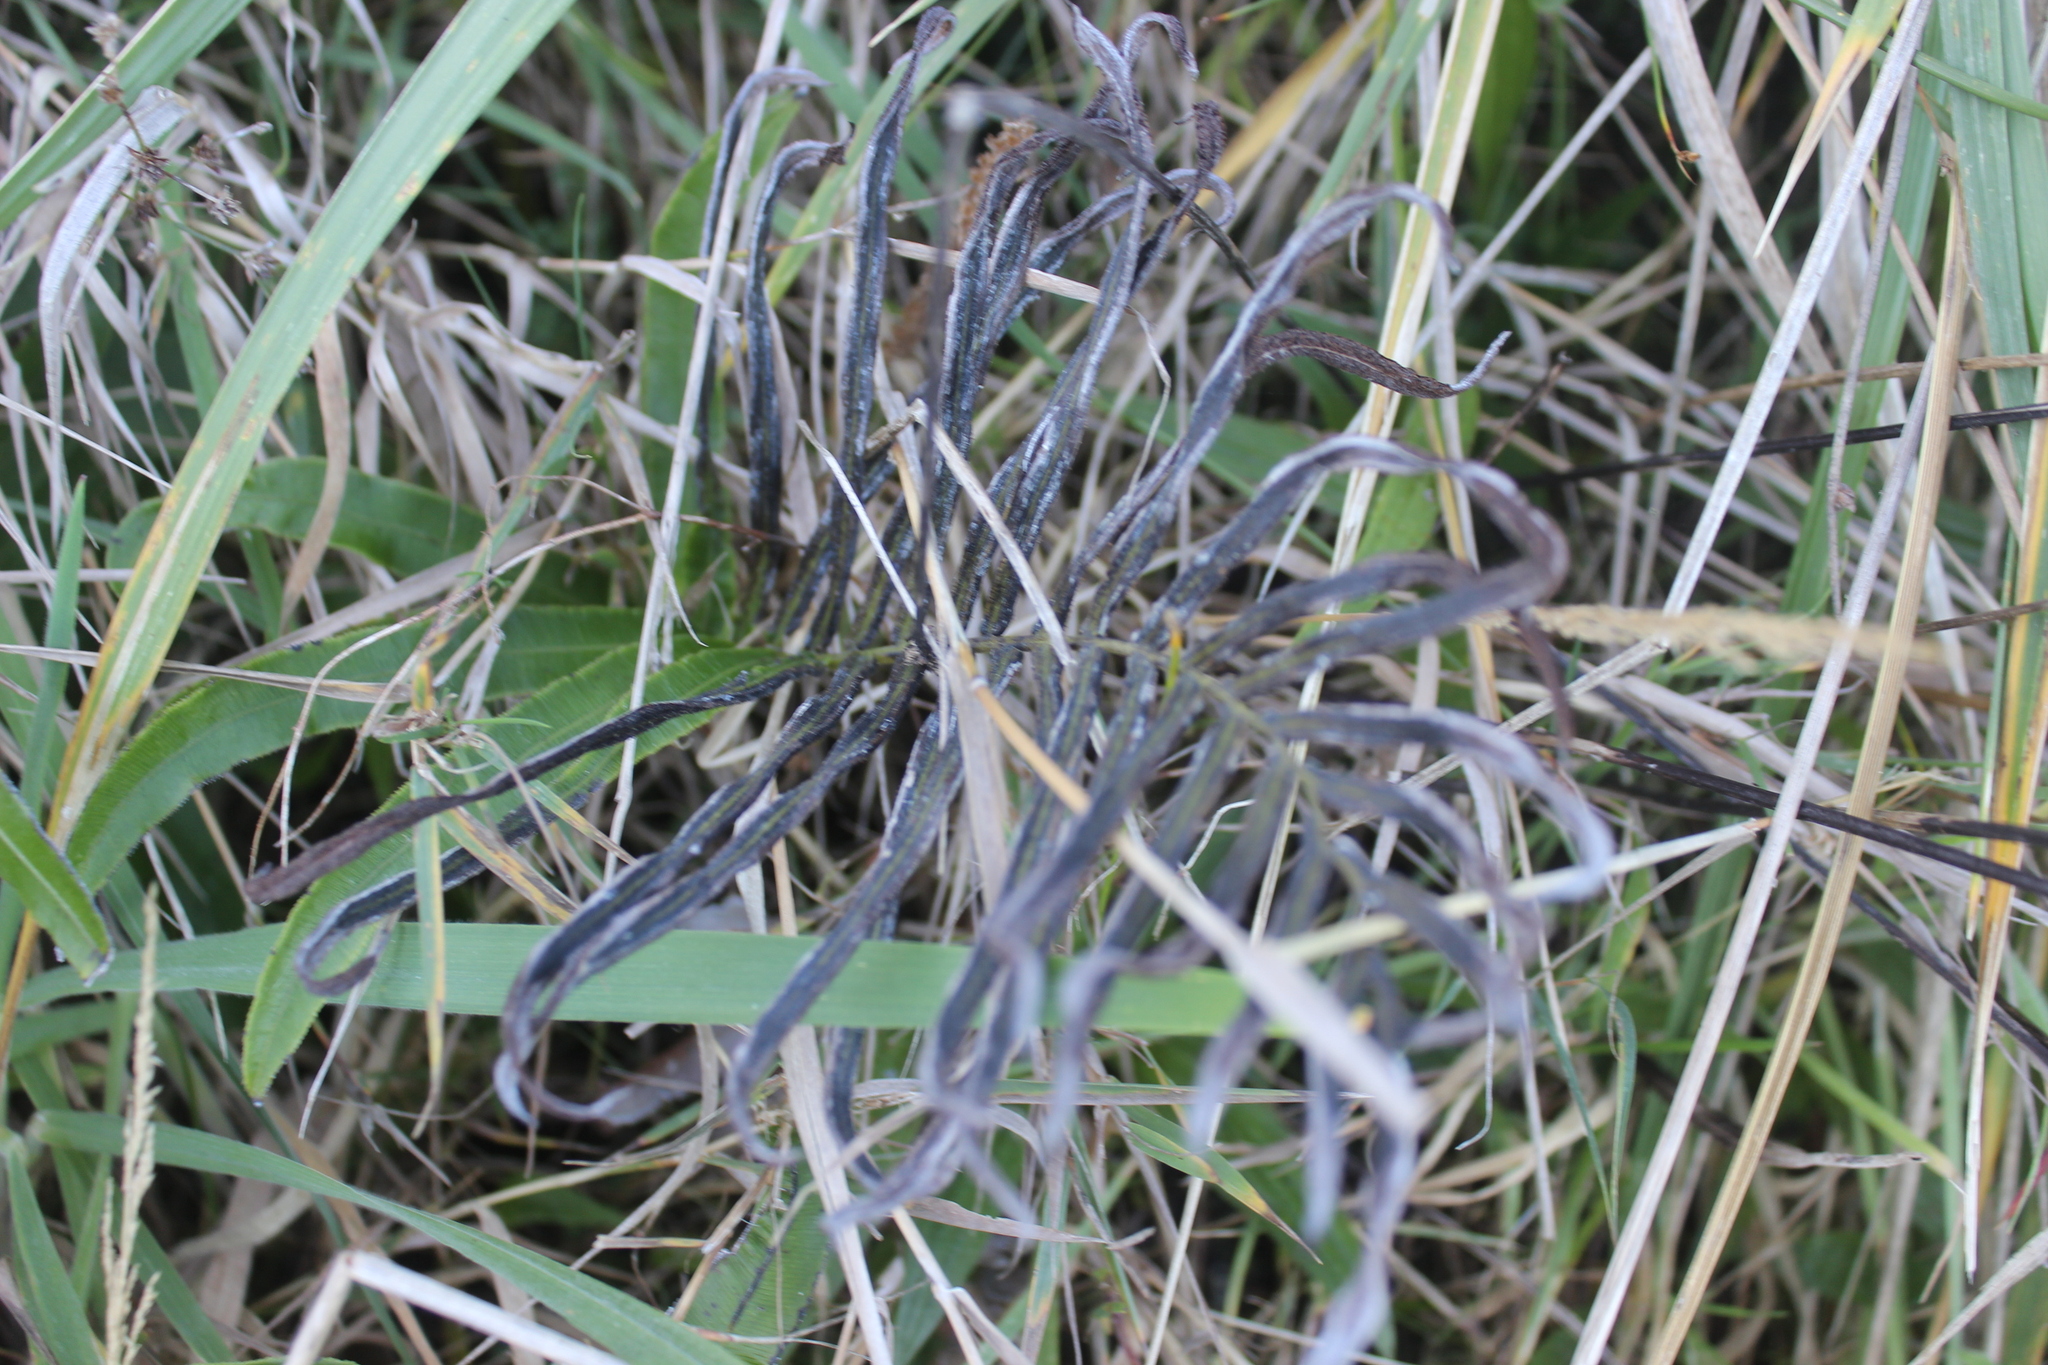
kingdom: Plantae
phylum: Tracheophyta
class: Polypodiopsida
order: Polypodiales
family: Blechnaceae
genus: Parablechnum
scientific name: Parablechnum triangularifolium
